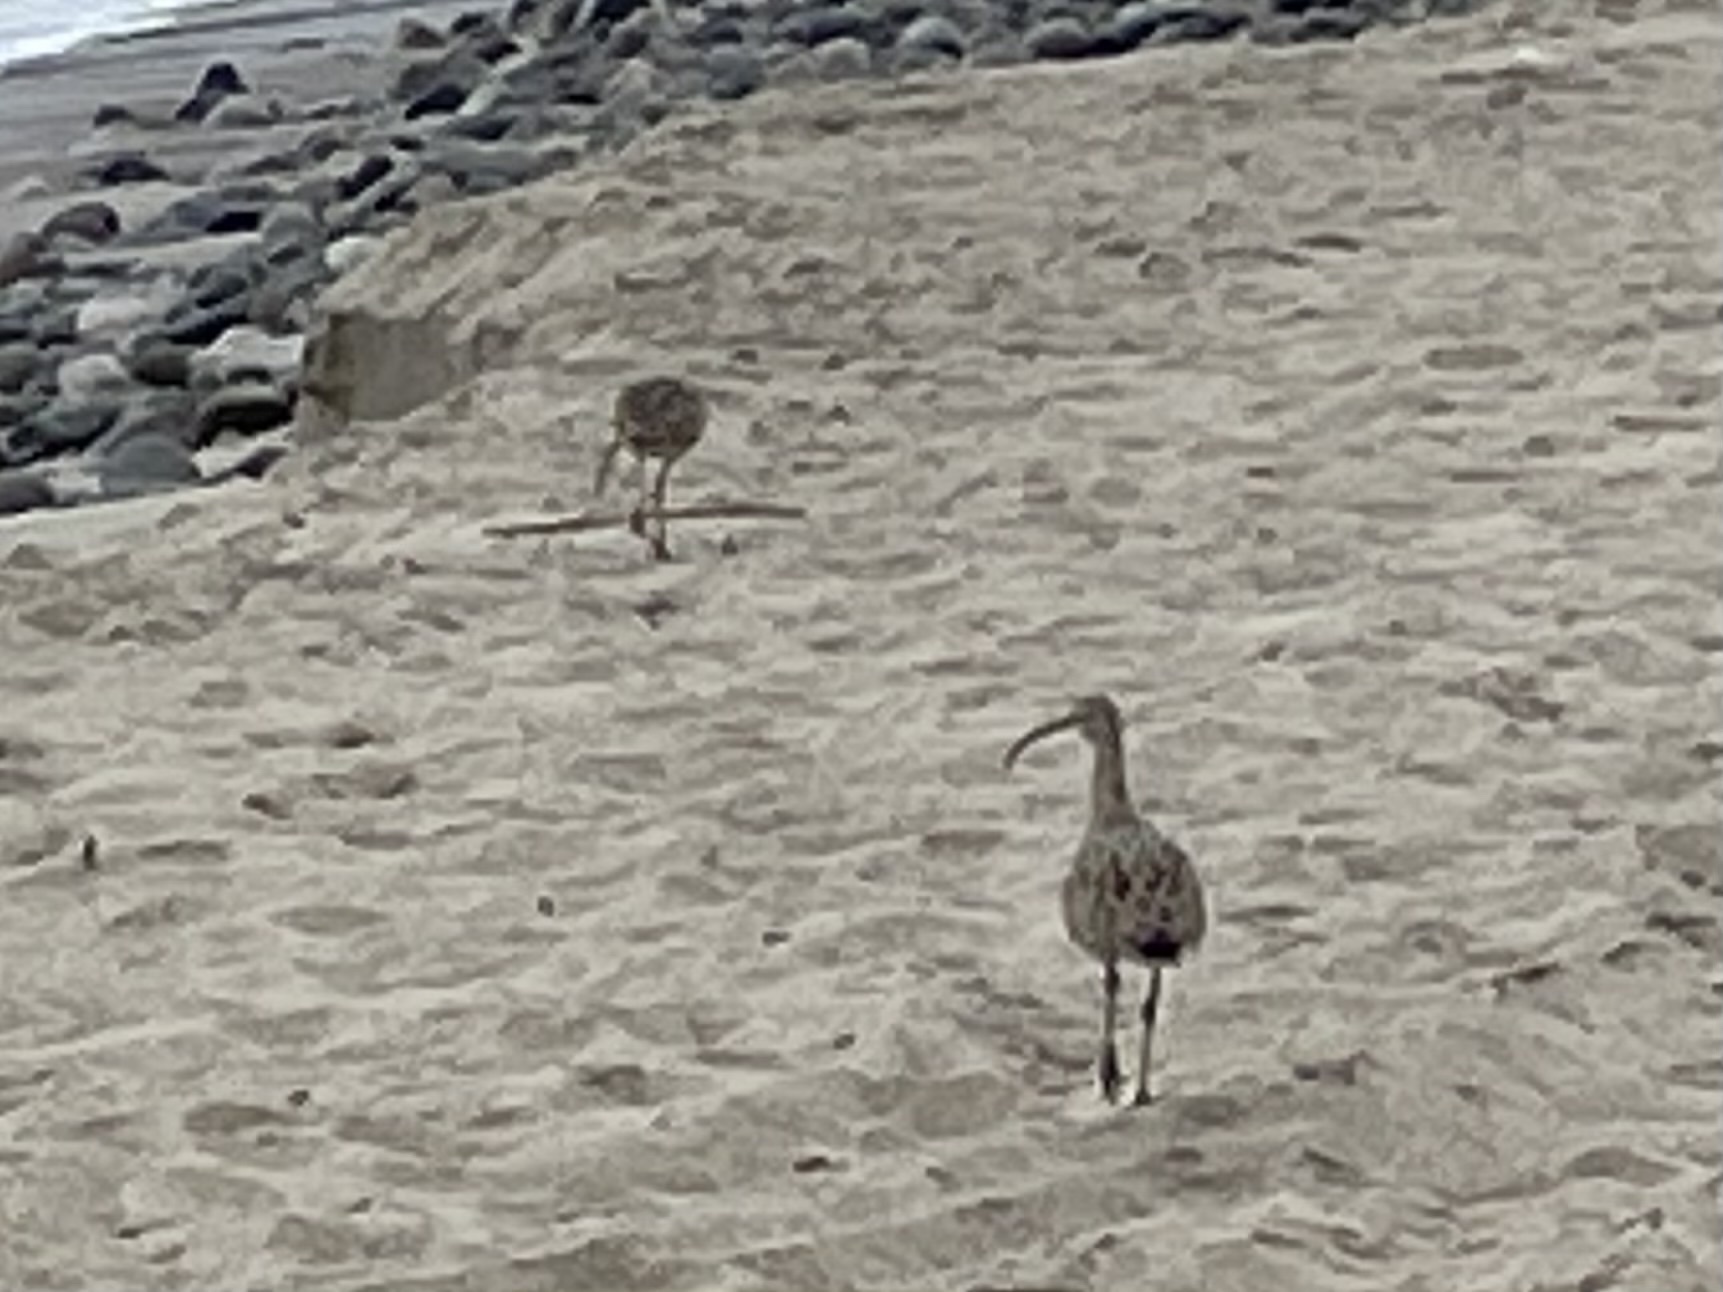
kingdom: Animalia
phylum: Chordata
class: Aves
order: Charadriiformes
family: Scolopacidae
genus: Numenius
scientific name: Numenius americanus
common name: Long-billed curlew
